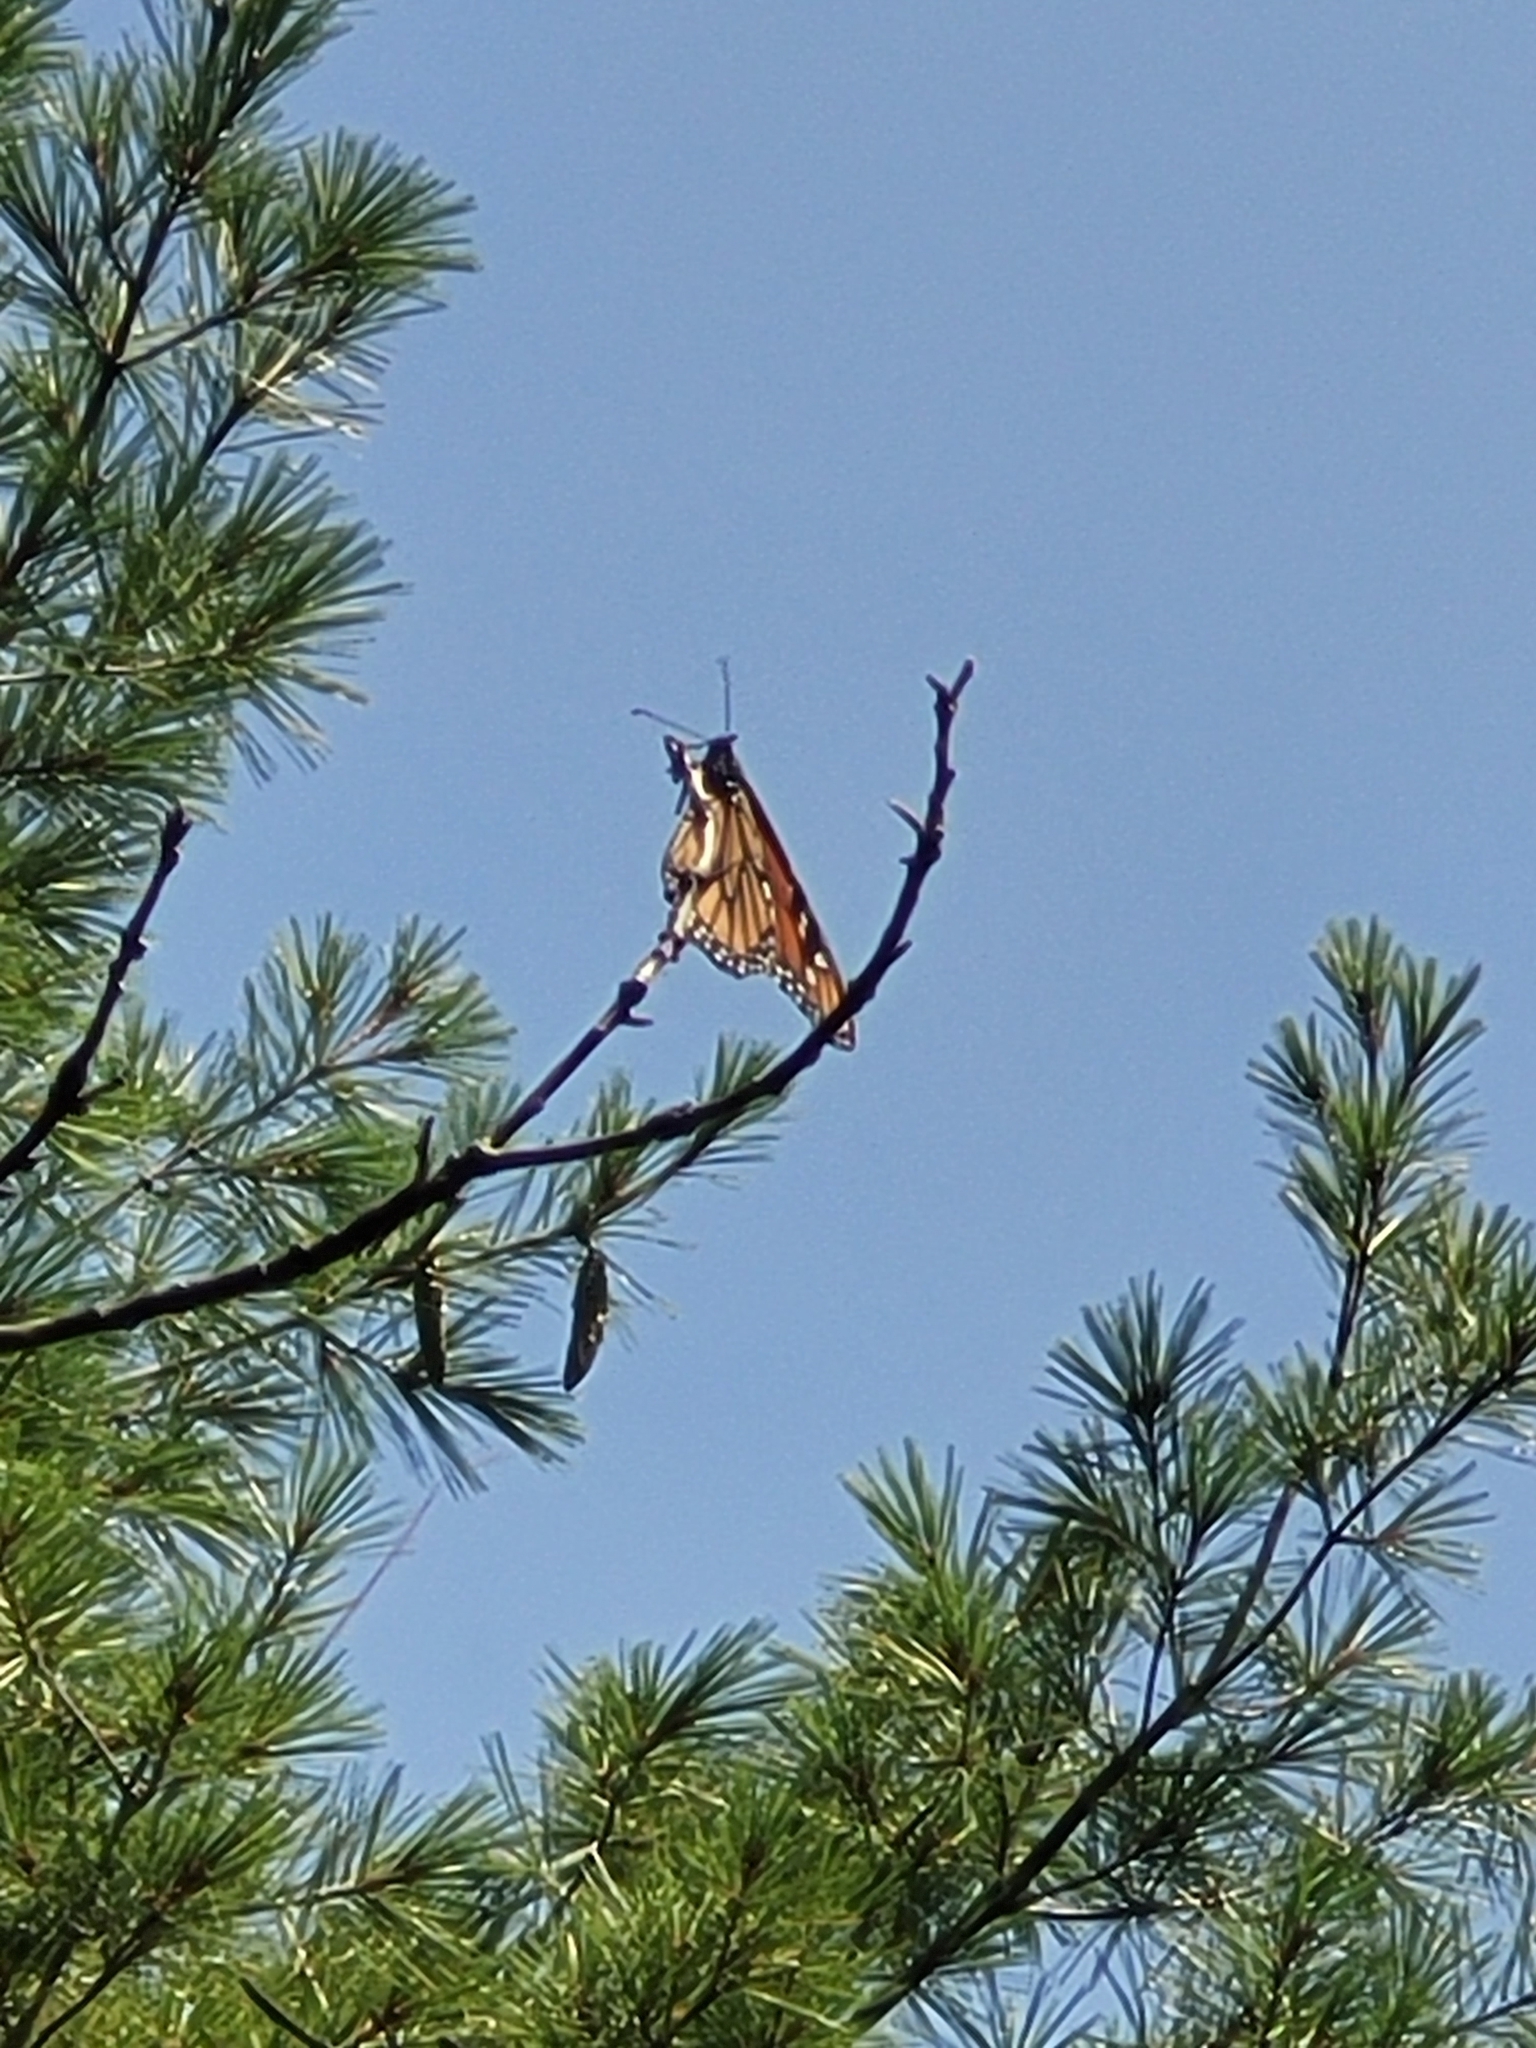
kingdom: Animalia
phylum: Arthropoda
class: Insecta
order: Lepidoptera
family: Nymphalidae
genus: Danaus
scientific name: Danaus plexippus
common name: Monarch
